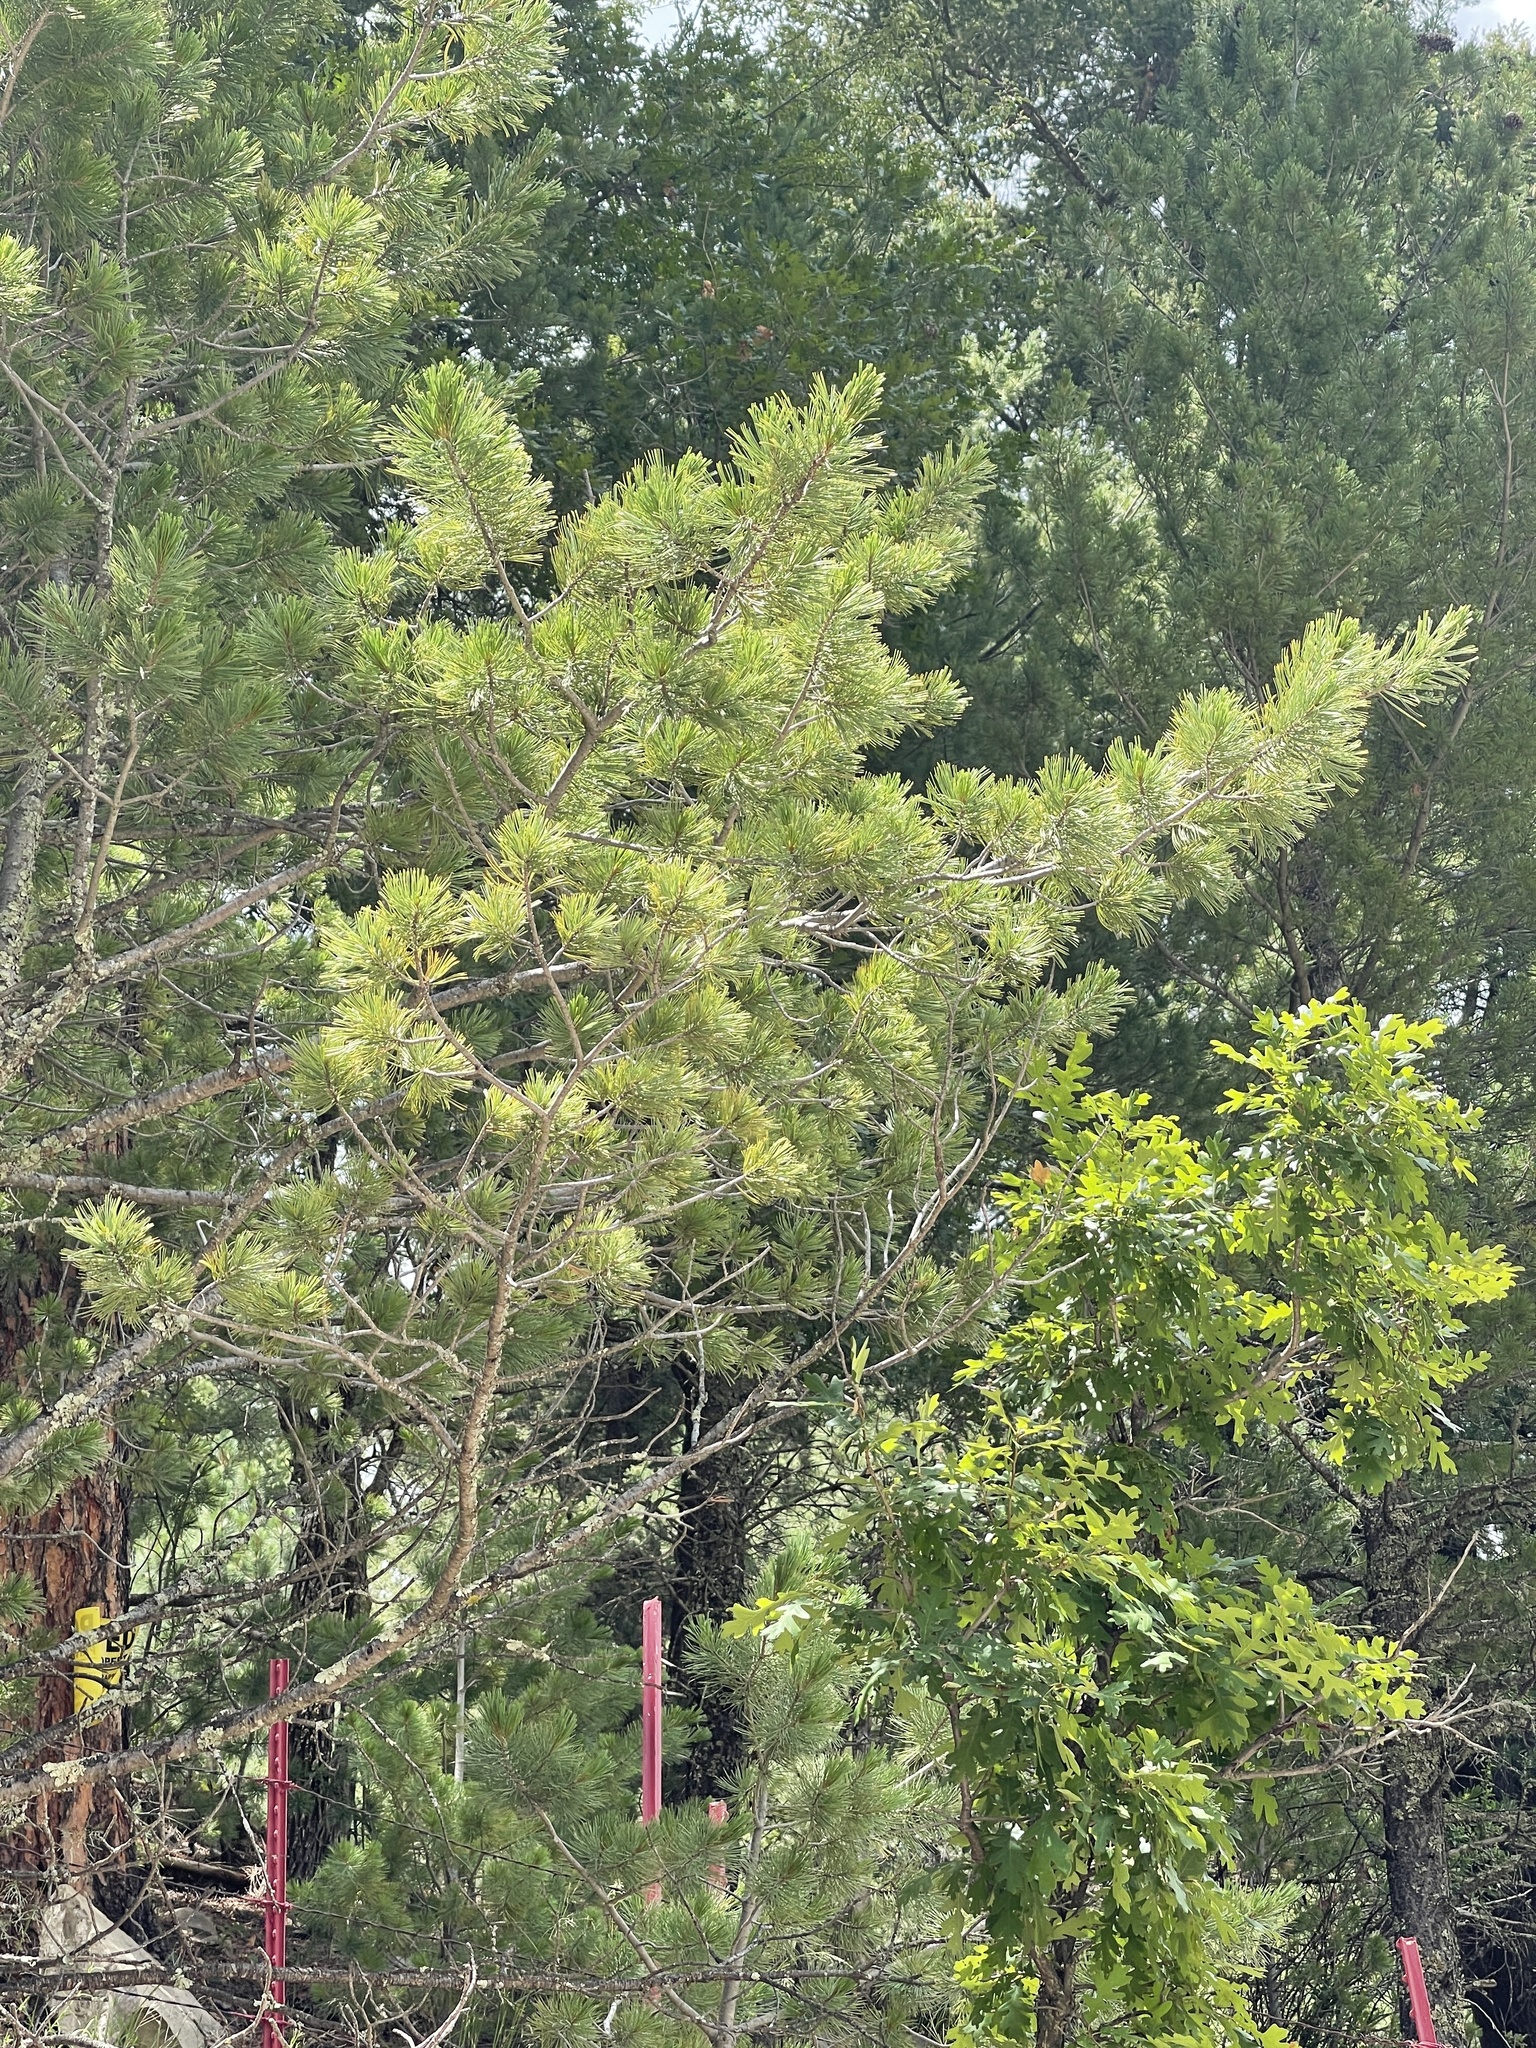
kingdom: Plantae
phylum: Tracheophyta
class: Pinopsida
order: Pinales
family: Pinaceae
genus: Pinus
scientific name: Pinus strobiformis
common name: Southwestern white pine
